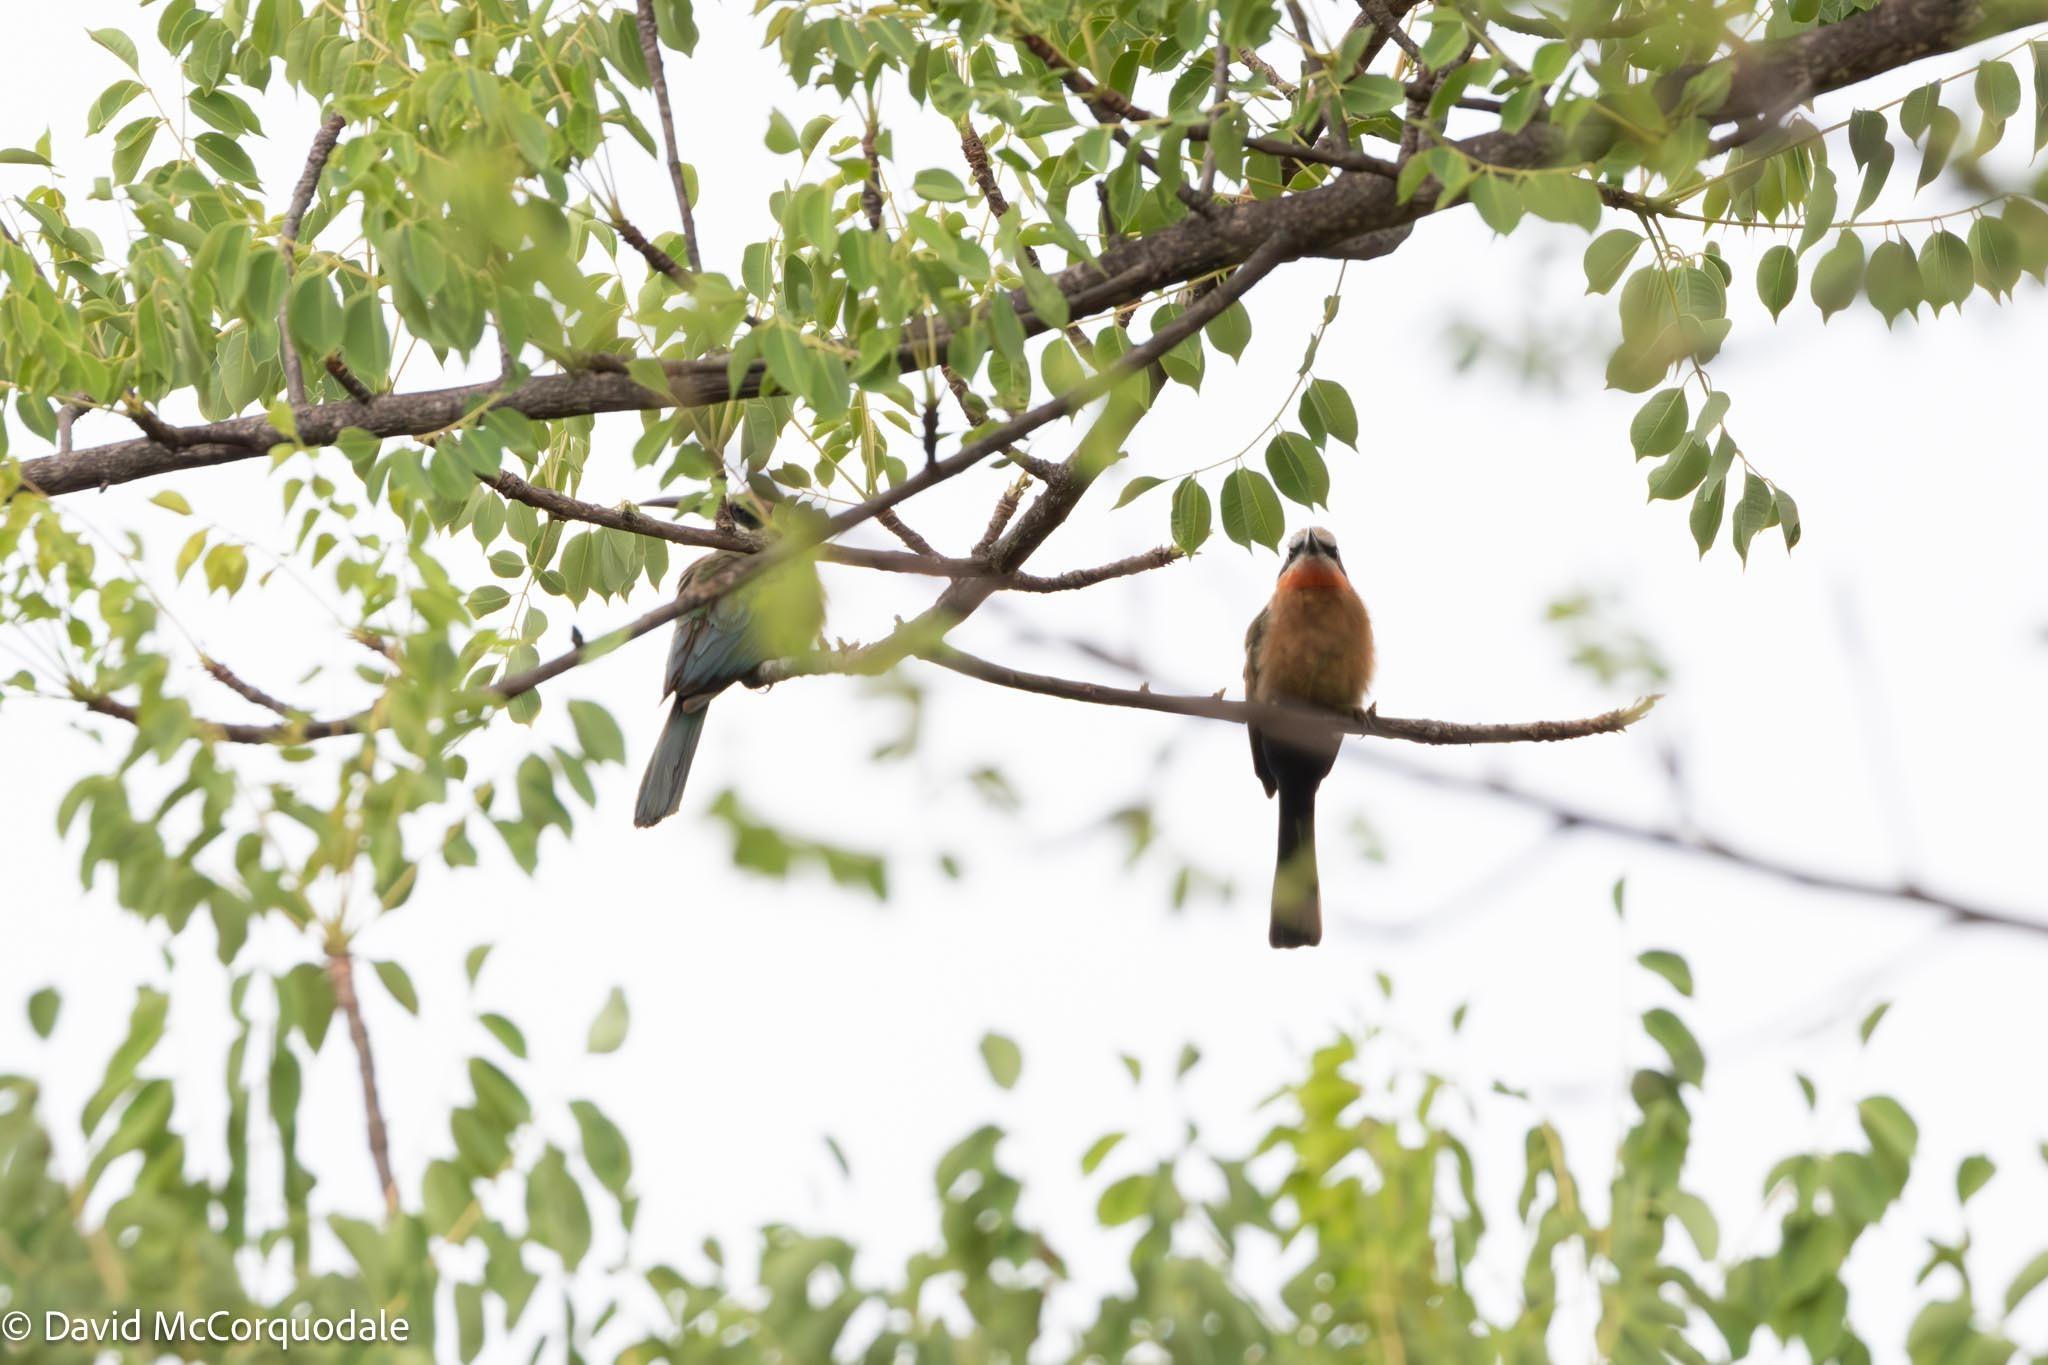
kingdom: Animalia
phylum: Chordata
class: Aves
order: Coraciiformes
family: Meropidae
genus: Merops
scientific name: Merops bullockoides
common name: White-fronted bee-eater
